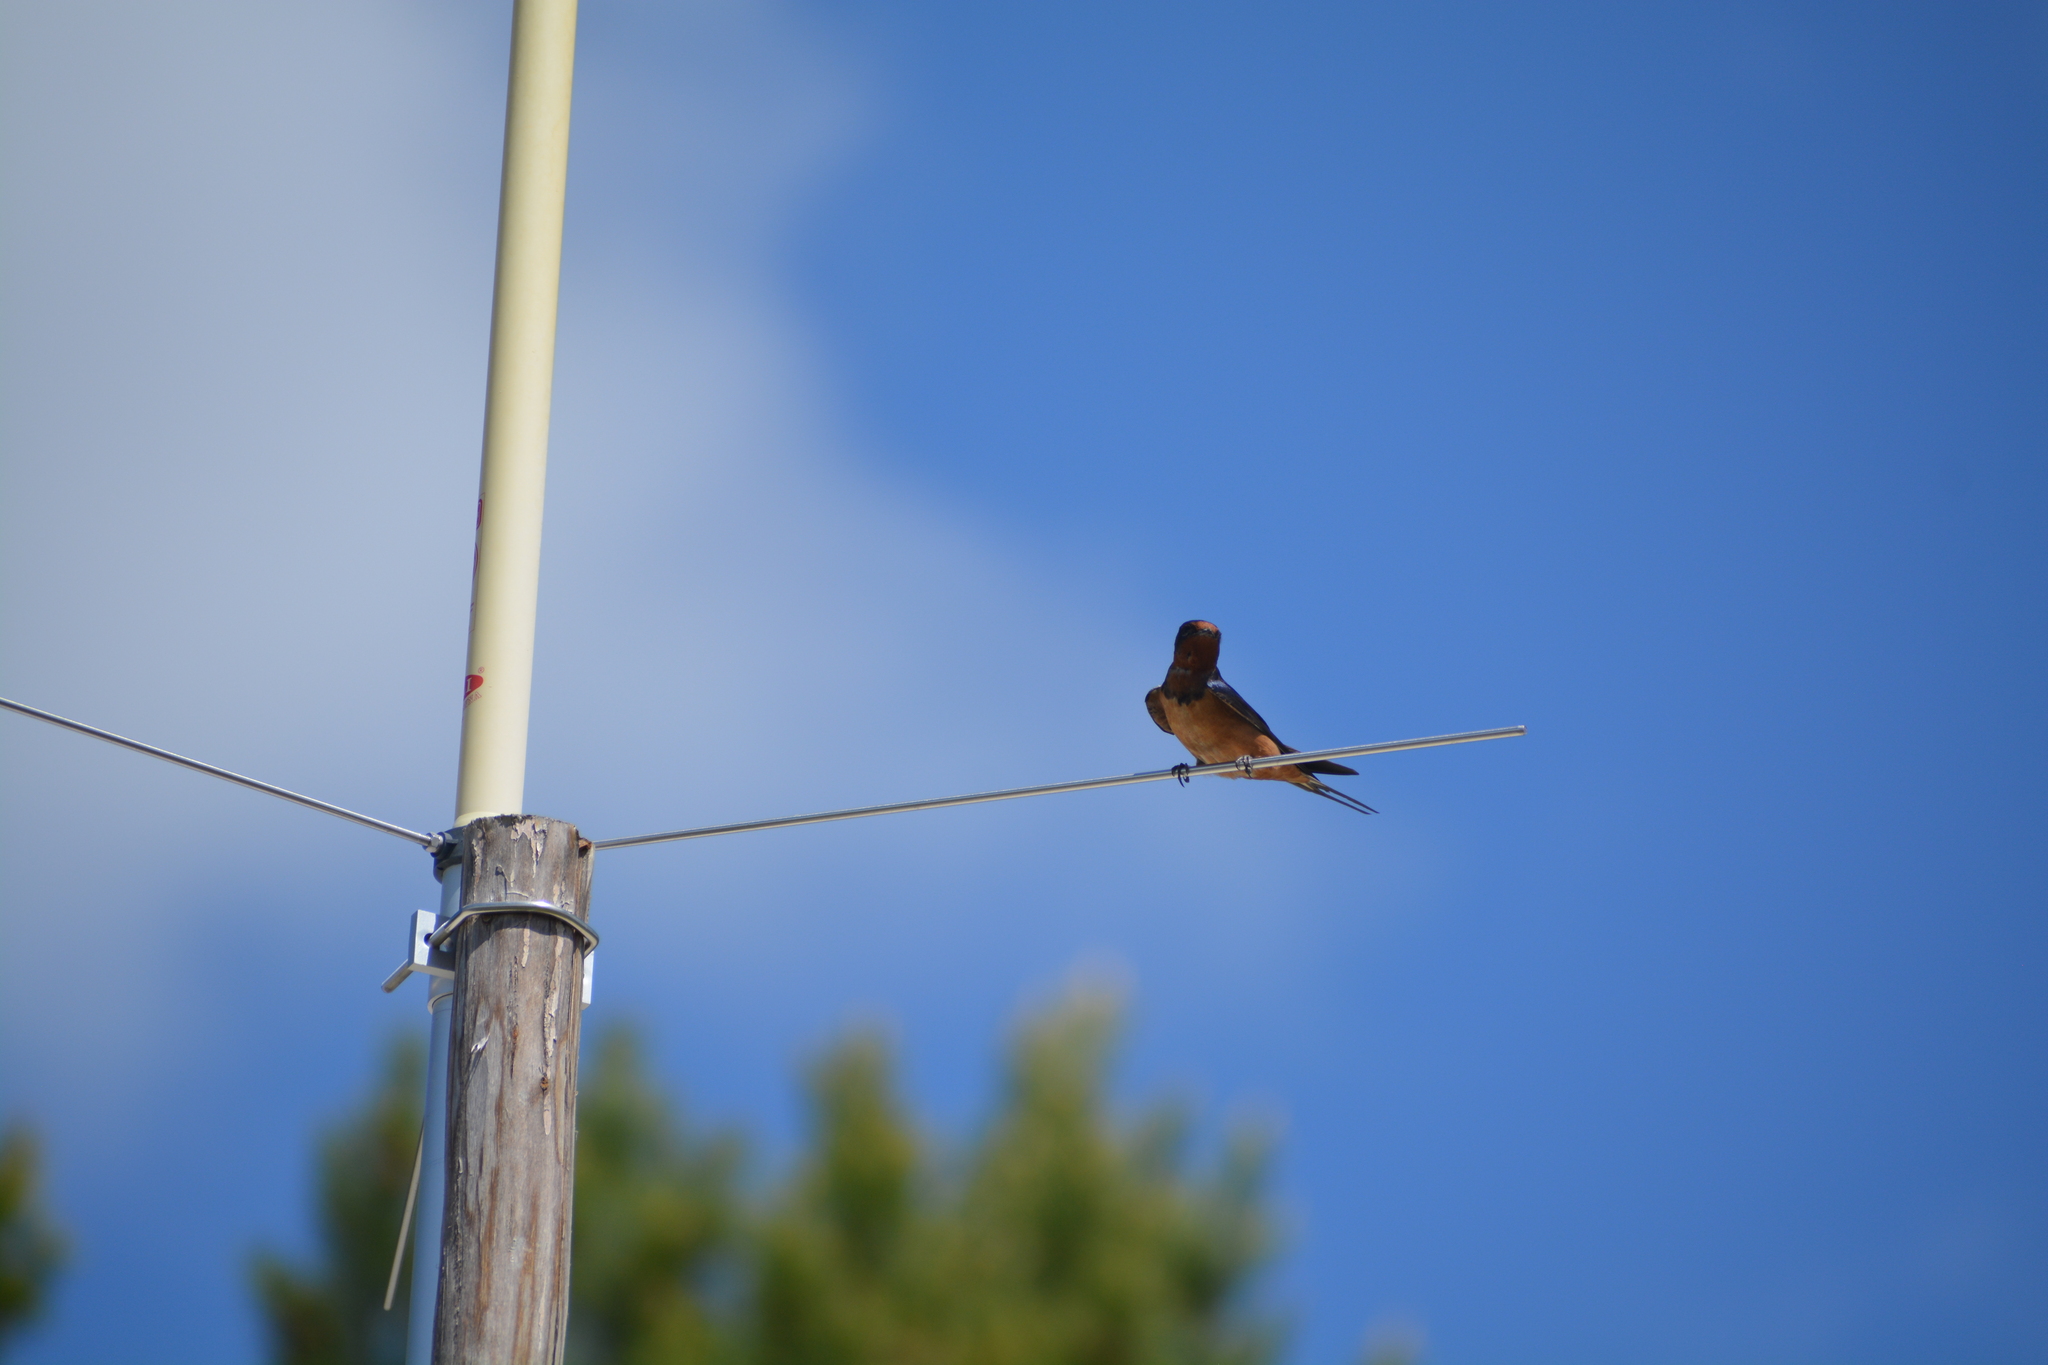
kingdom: Animalia
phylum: Chordata
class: Aves
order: Passeriformes
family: Hirundinidae
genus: Hirundo
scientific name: Hirundo rustica
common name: Barn swallow
